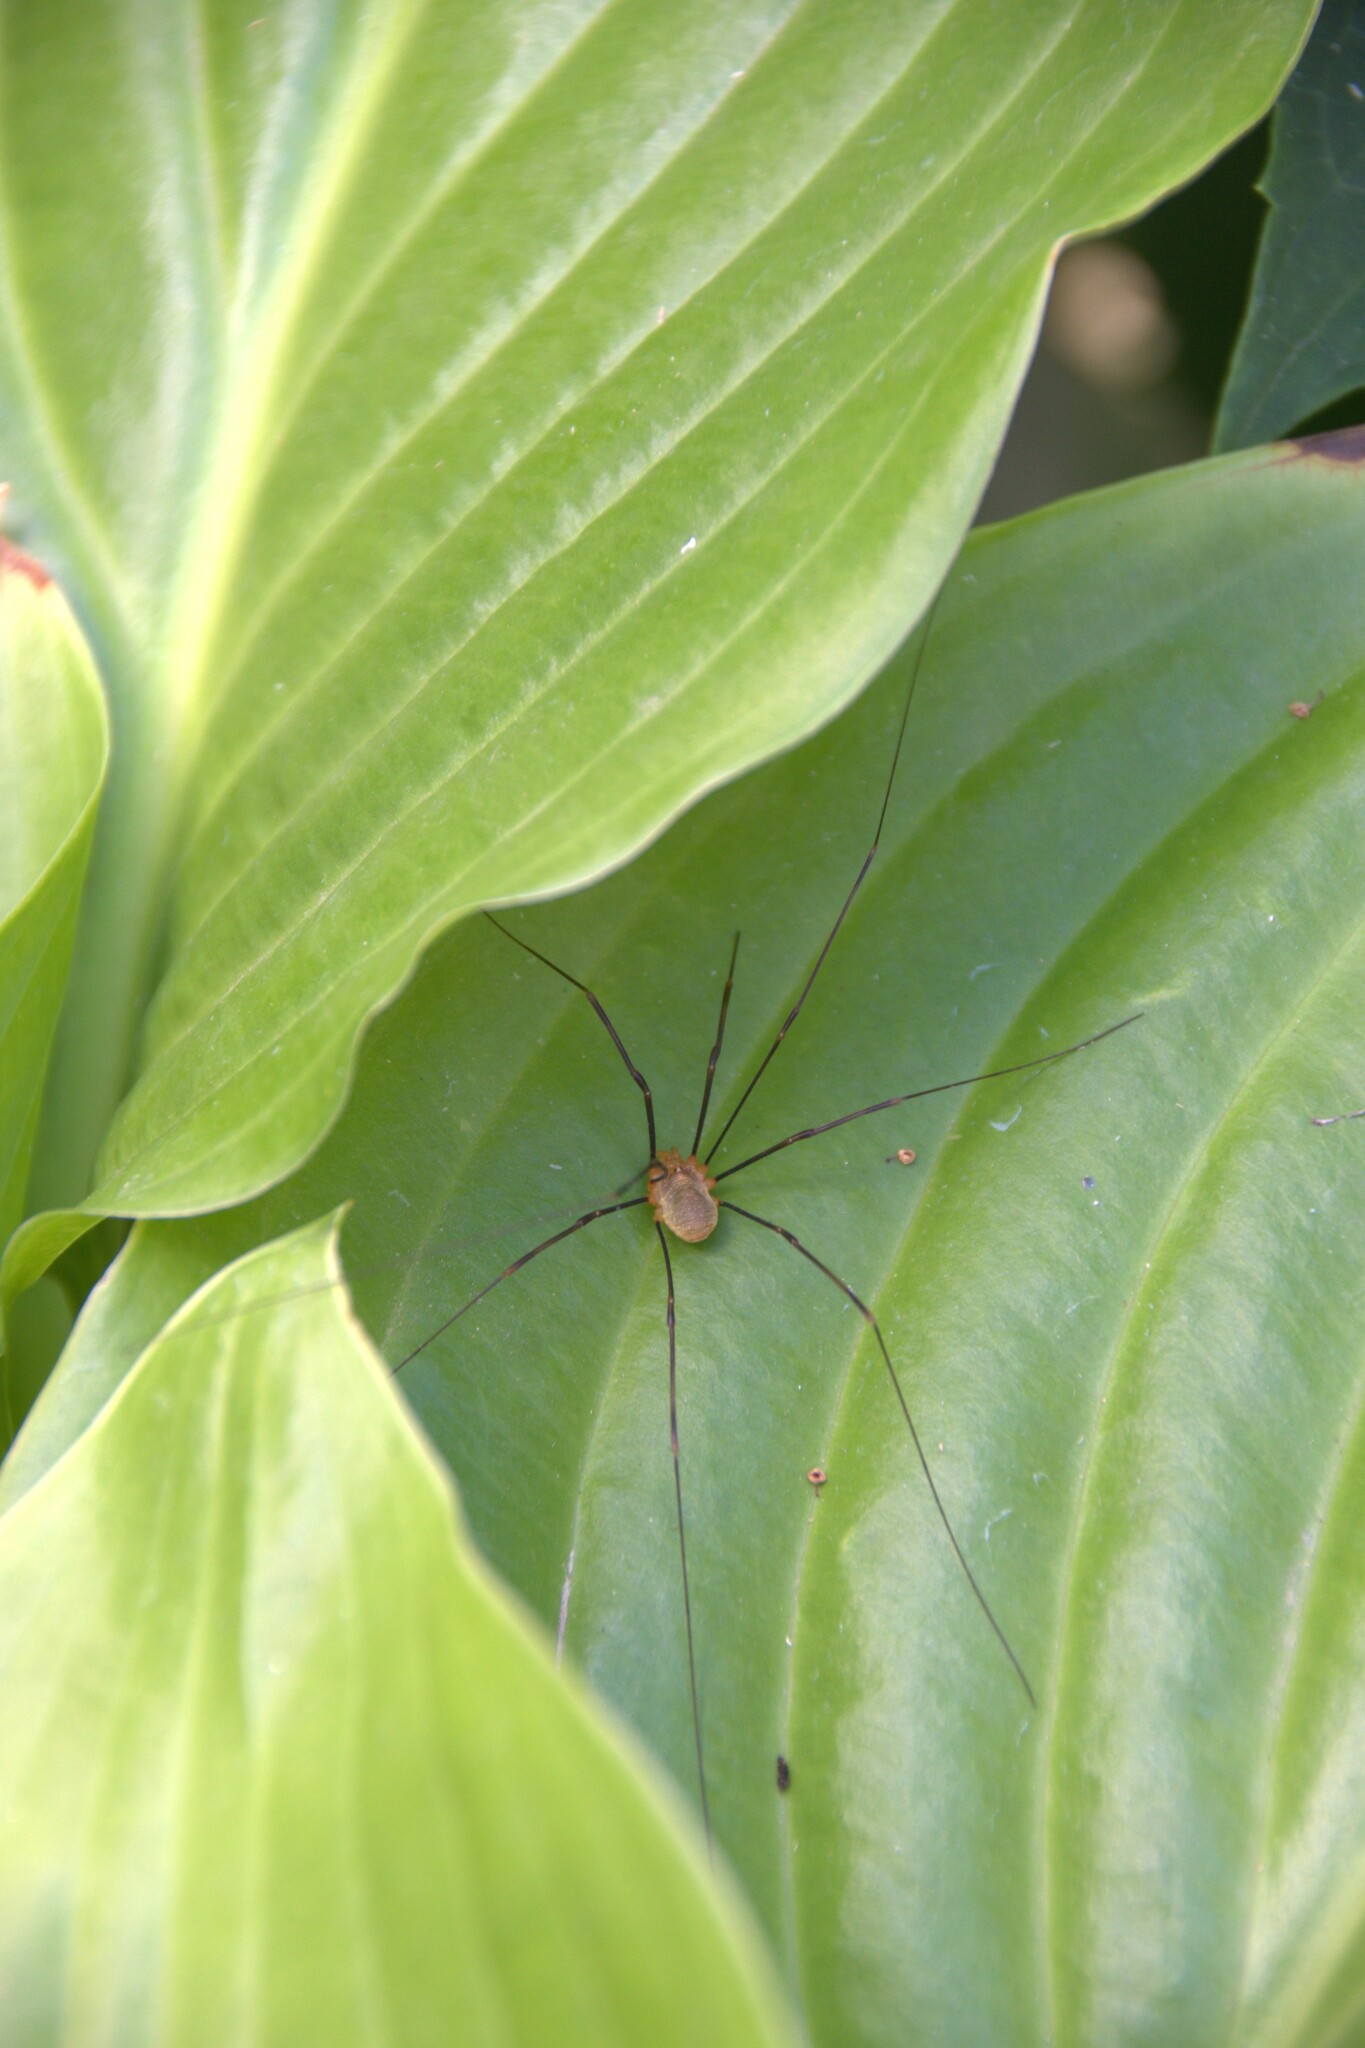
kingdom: Animalia
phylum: Arthropoda
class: Arachnida
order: Opiliones
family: Phalangiidae
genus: Opilio
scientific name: Opilio canestrinii
